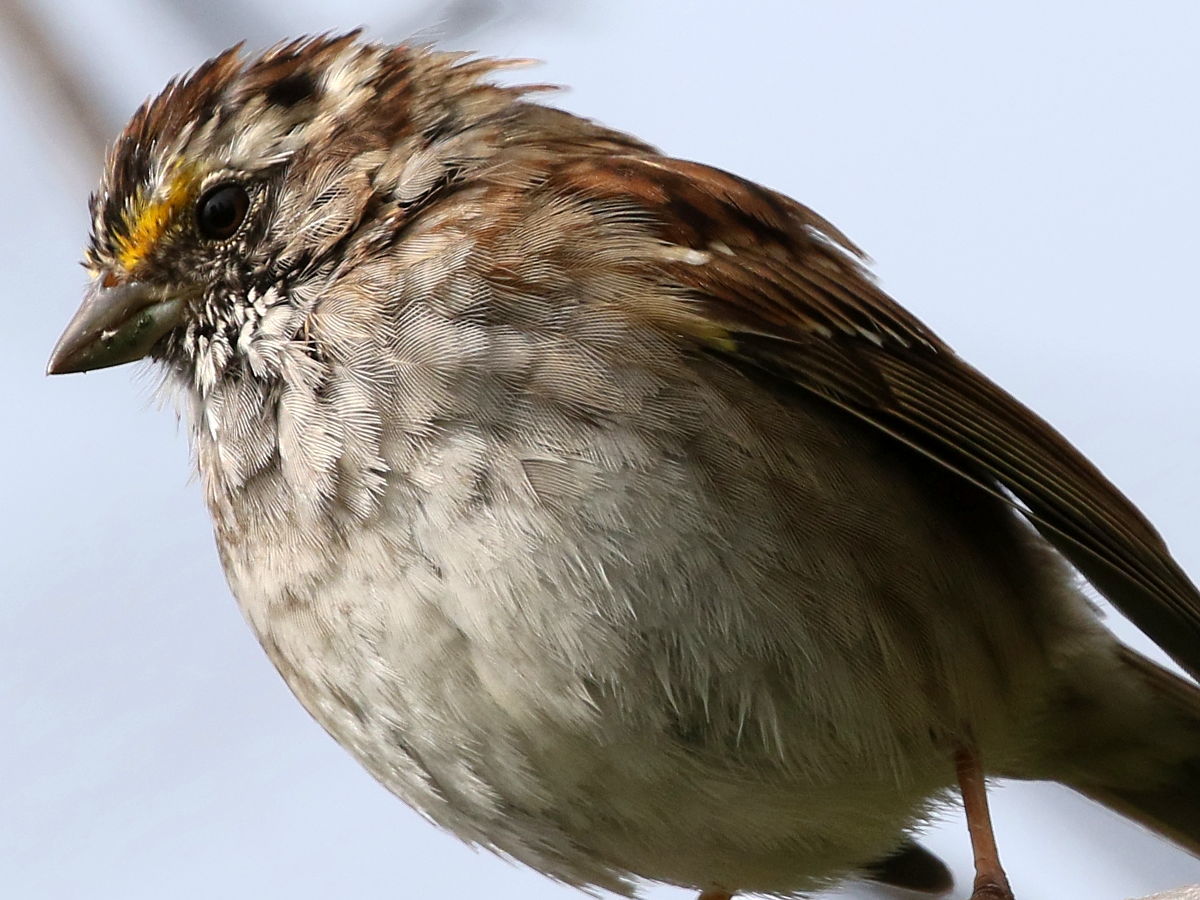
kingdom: Animalia
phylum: Chordata
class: Aves
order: Passeriformes
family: Passerellidae
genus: Zonotrichia
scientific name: Zonotrichia albicollis
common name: White-throated sparrow
